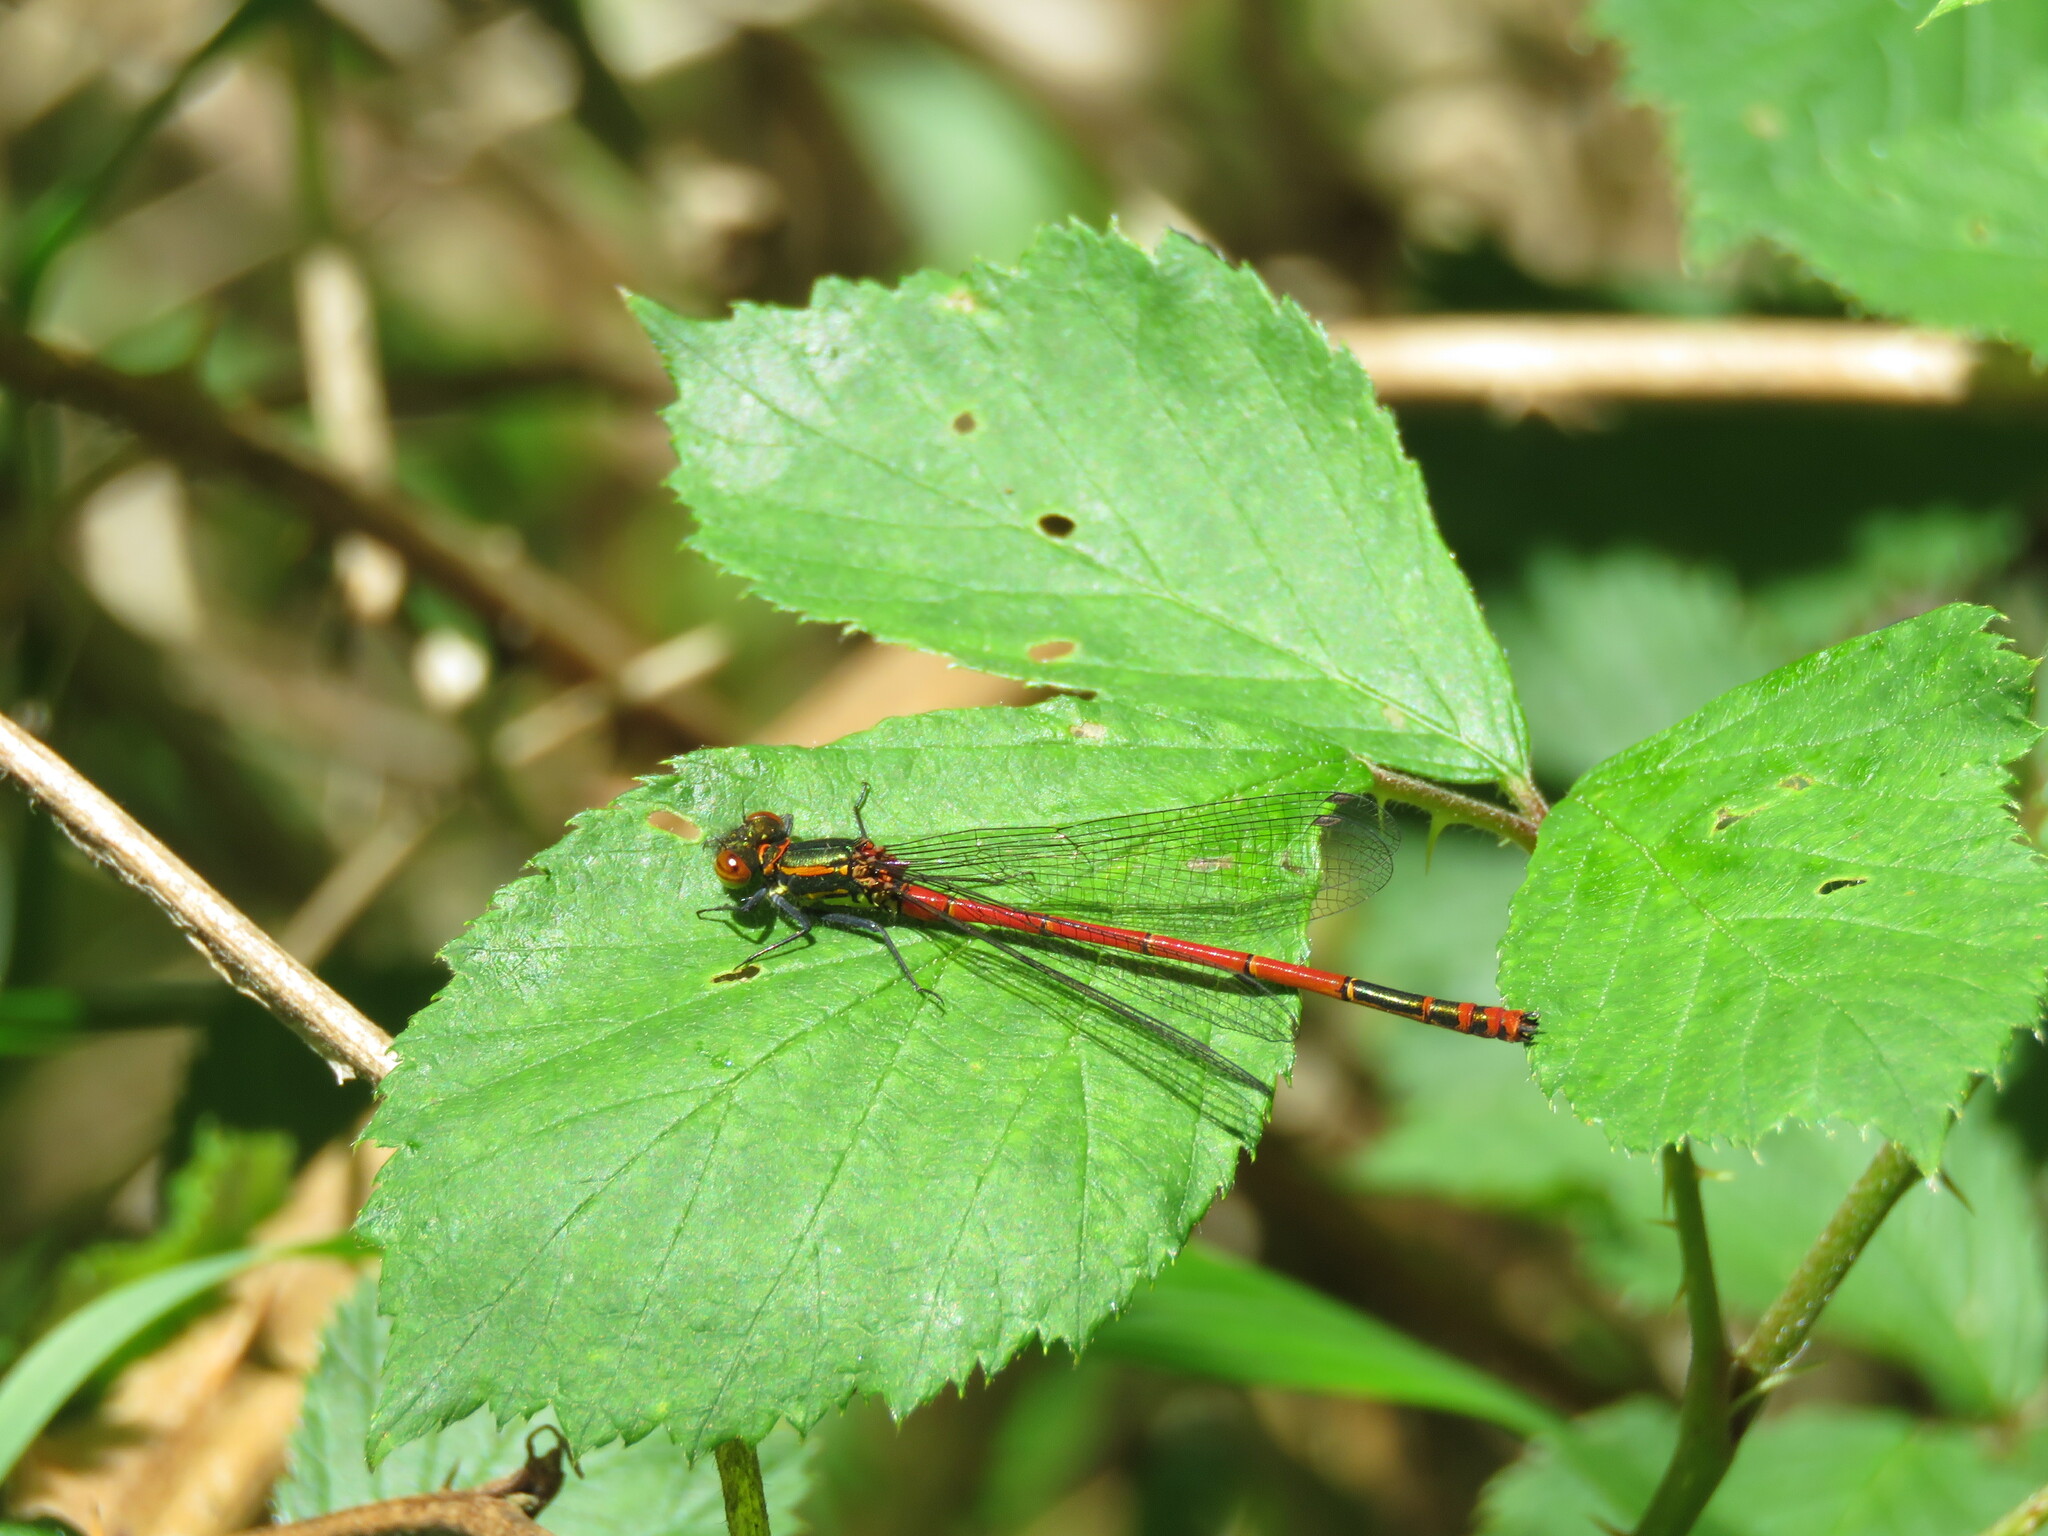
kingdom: Animalia
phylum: Arthropoda
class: Insecta
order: Odonata
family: Coenagrionidae
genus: Pyrrhosoma
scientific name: Pyrrhosoma nymphula
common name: Large red damsel
